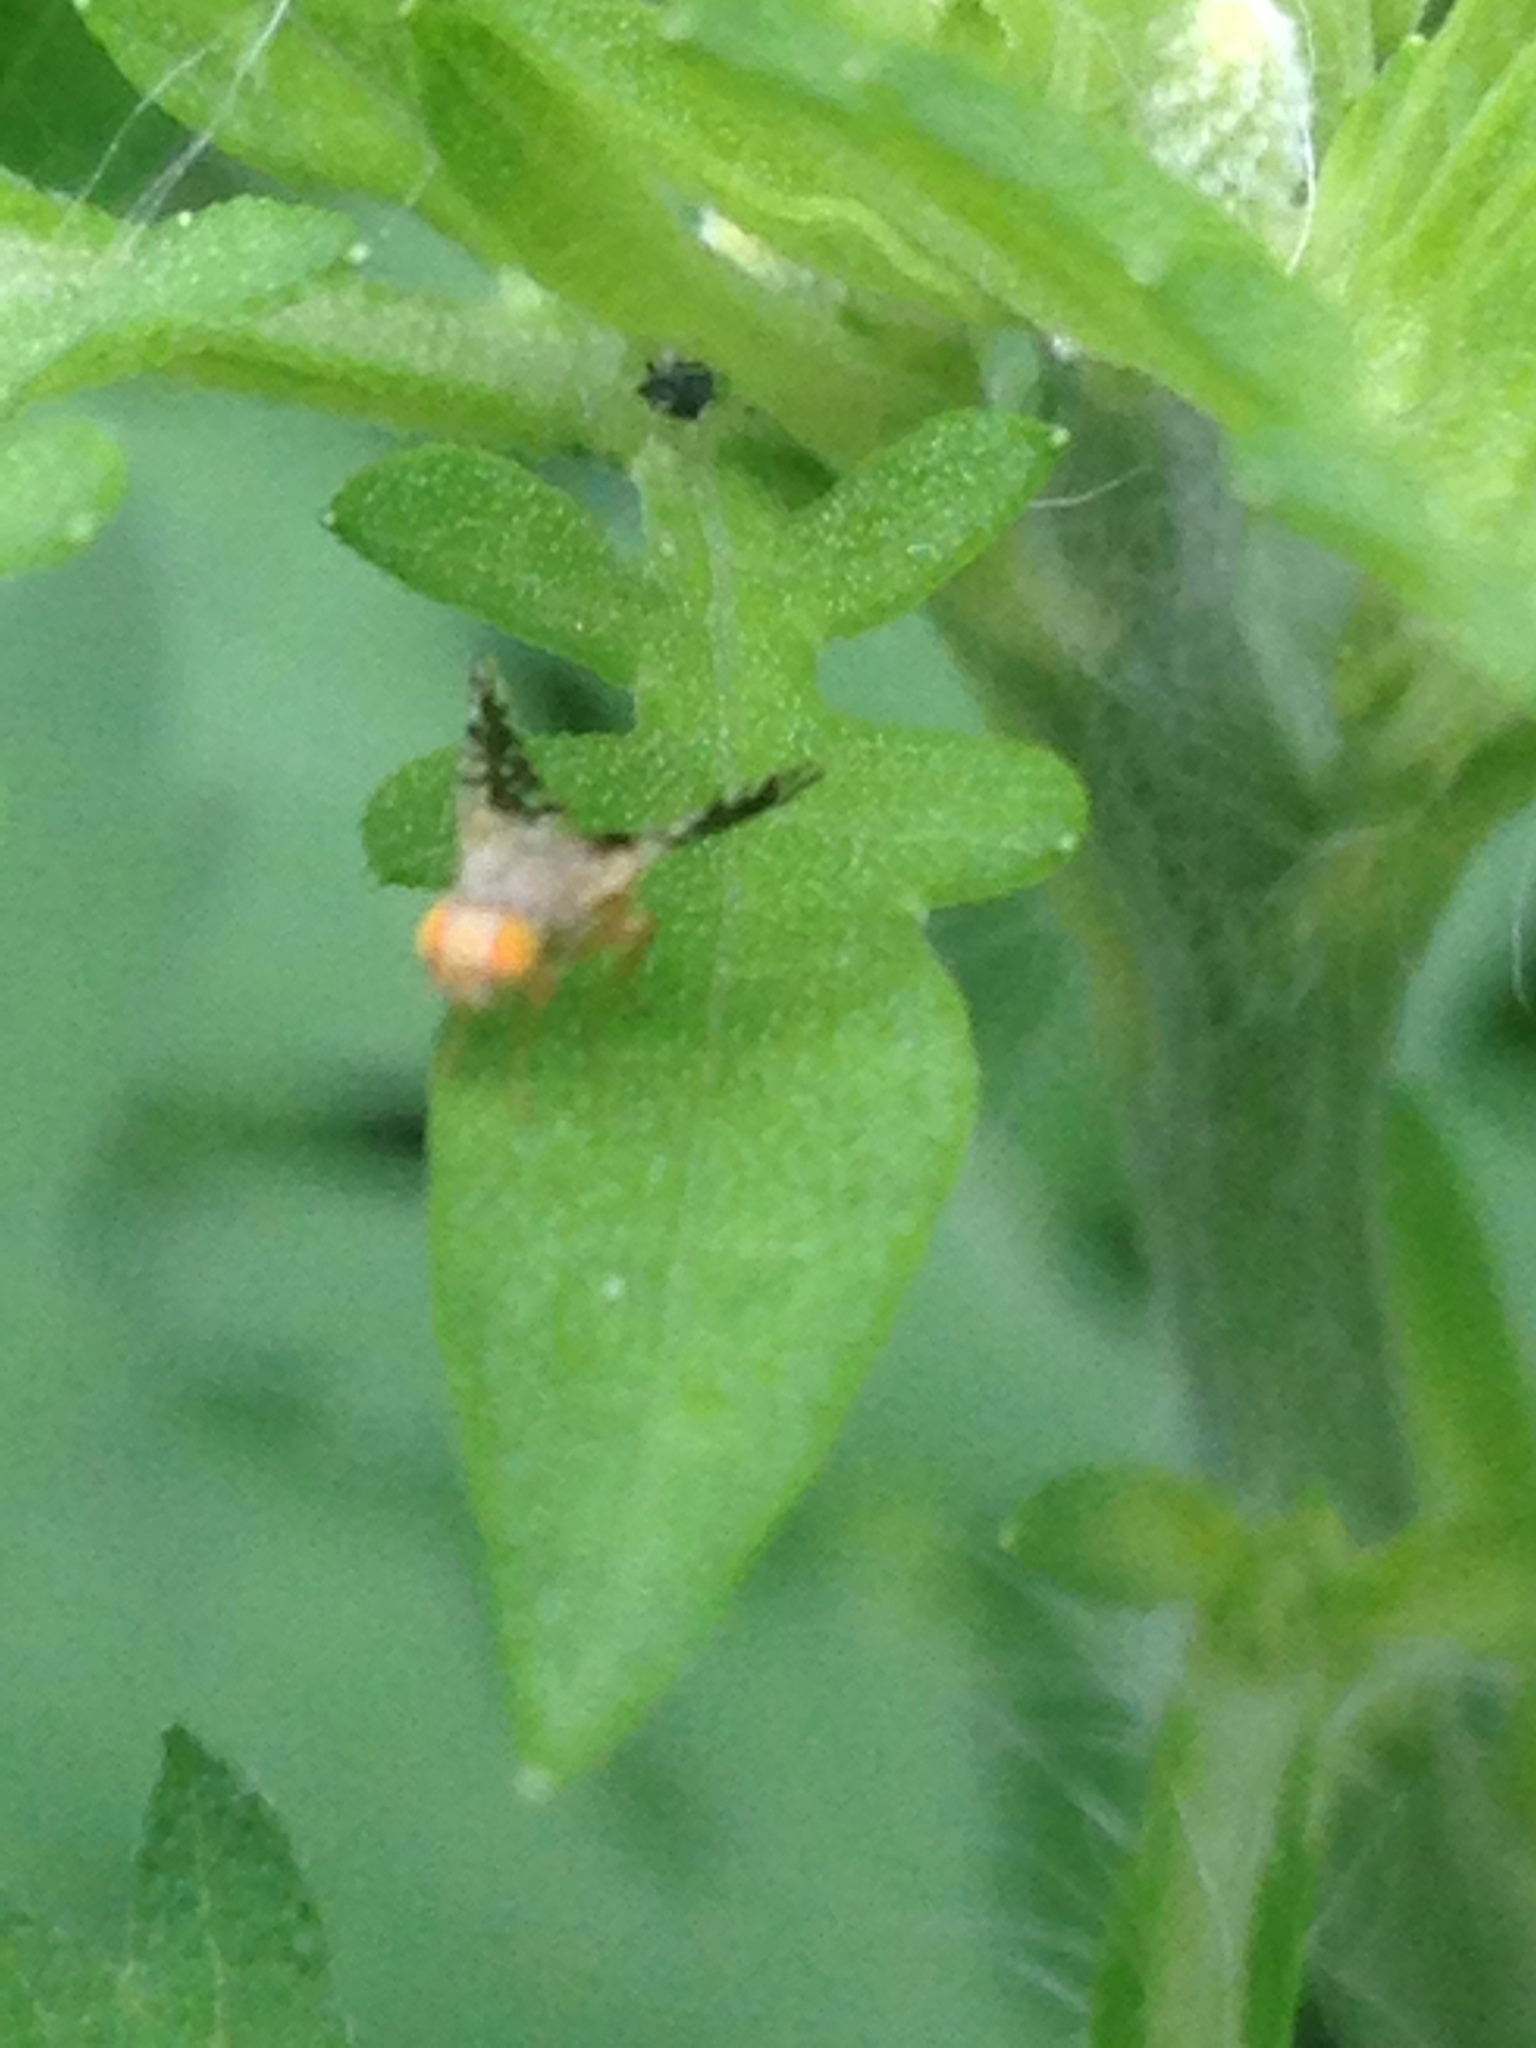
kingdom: Animalia
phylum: Arthropoda
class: Insecta
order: Diptera
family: Tephritidae
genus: Euaresta
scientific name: Euaresta bella
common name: Common ragweed fruit fly
